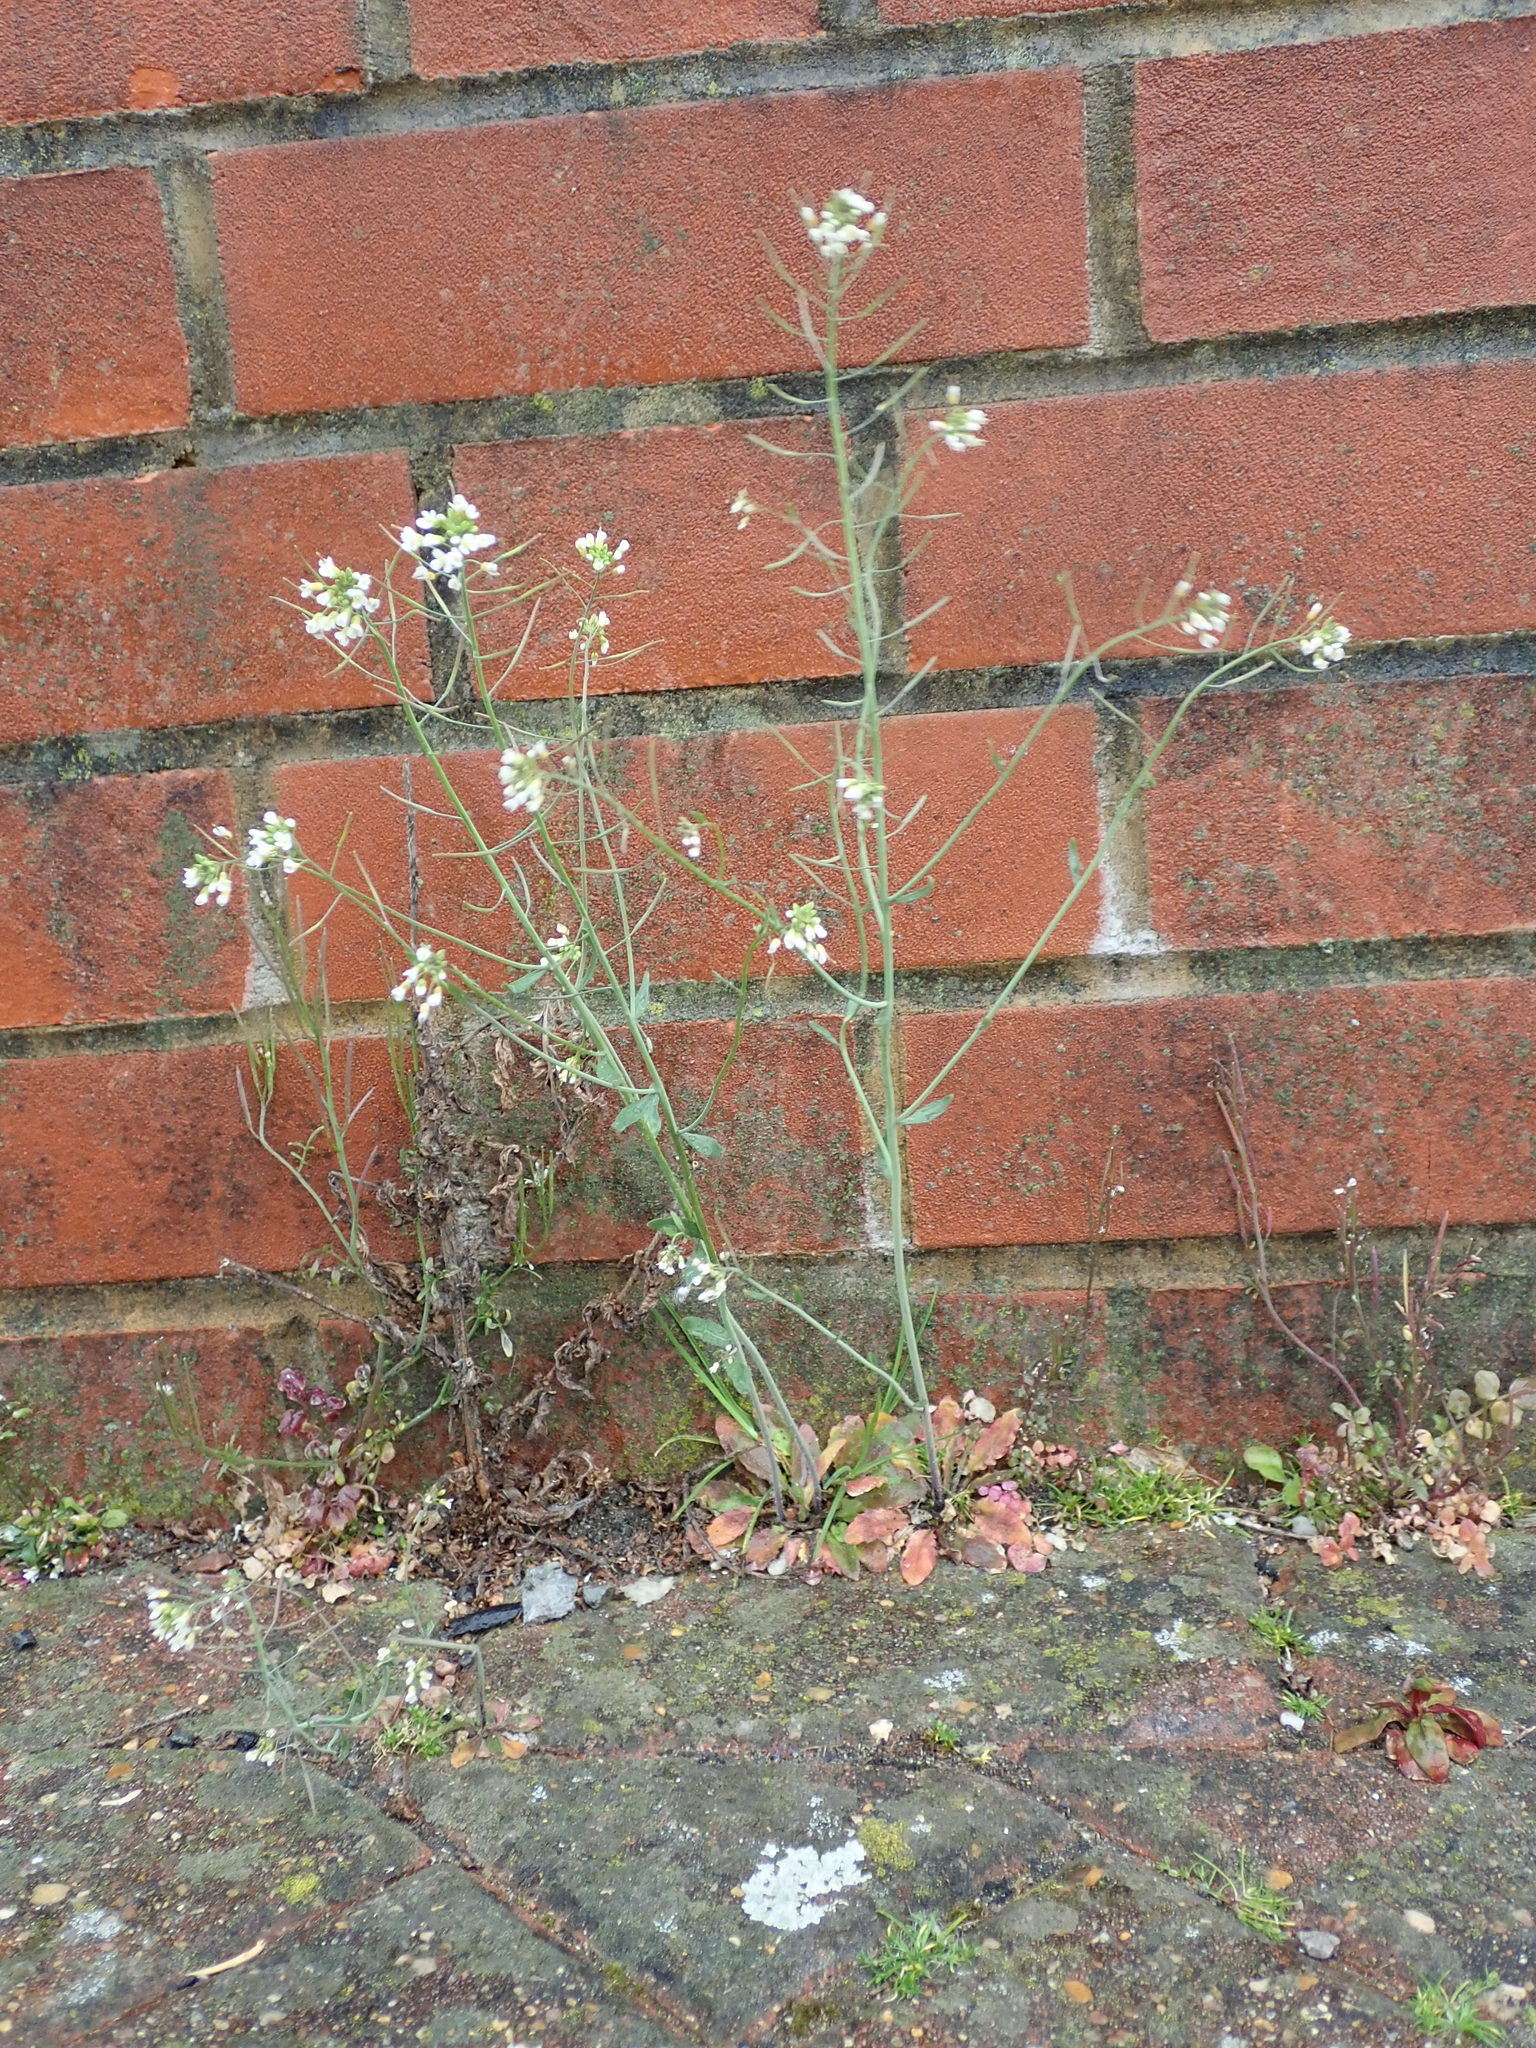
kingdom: Plantae
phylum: Tracheophyta
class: Magnoliopsida
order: Brassicales
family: Brassicaceae
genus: Arabidopsis
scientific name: Arabidopsis thaliana
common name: Thale cress
